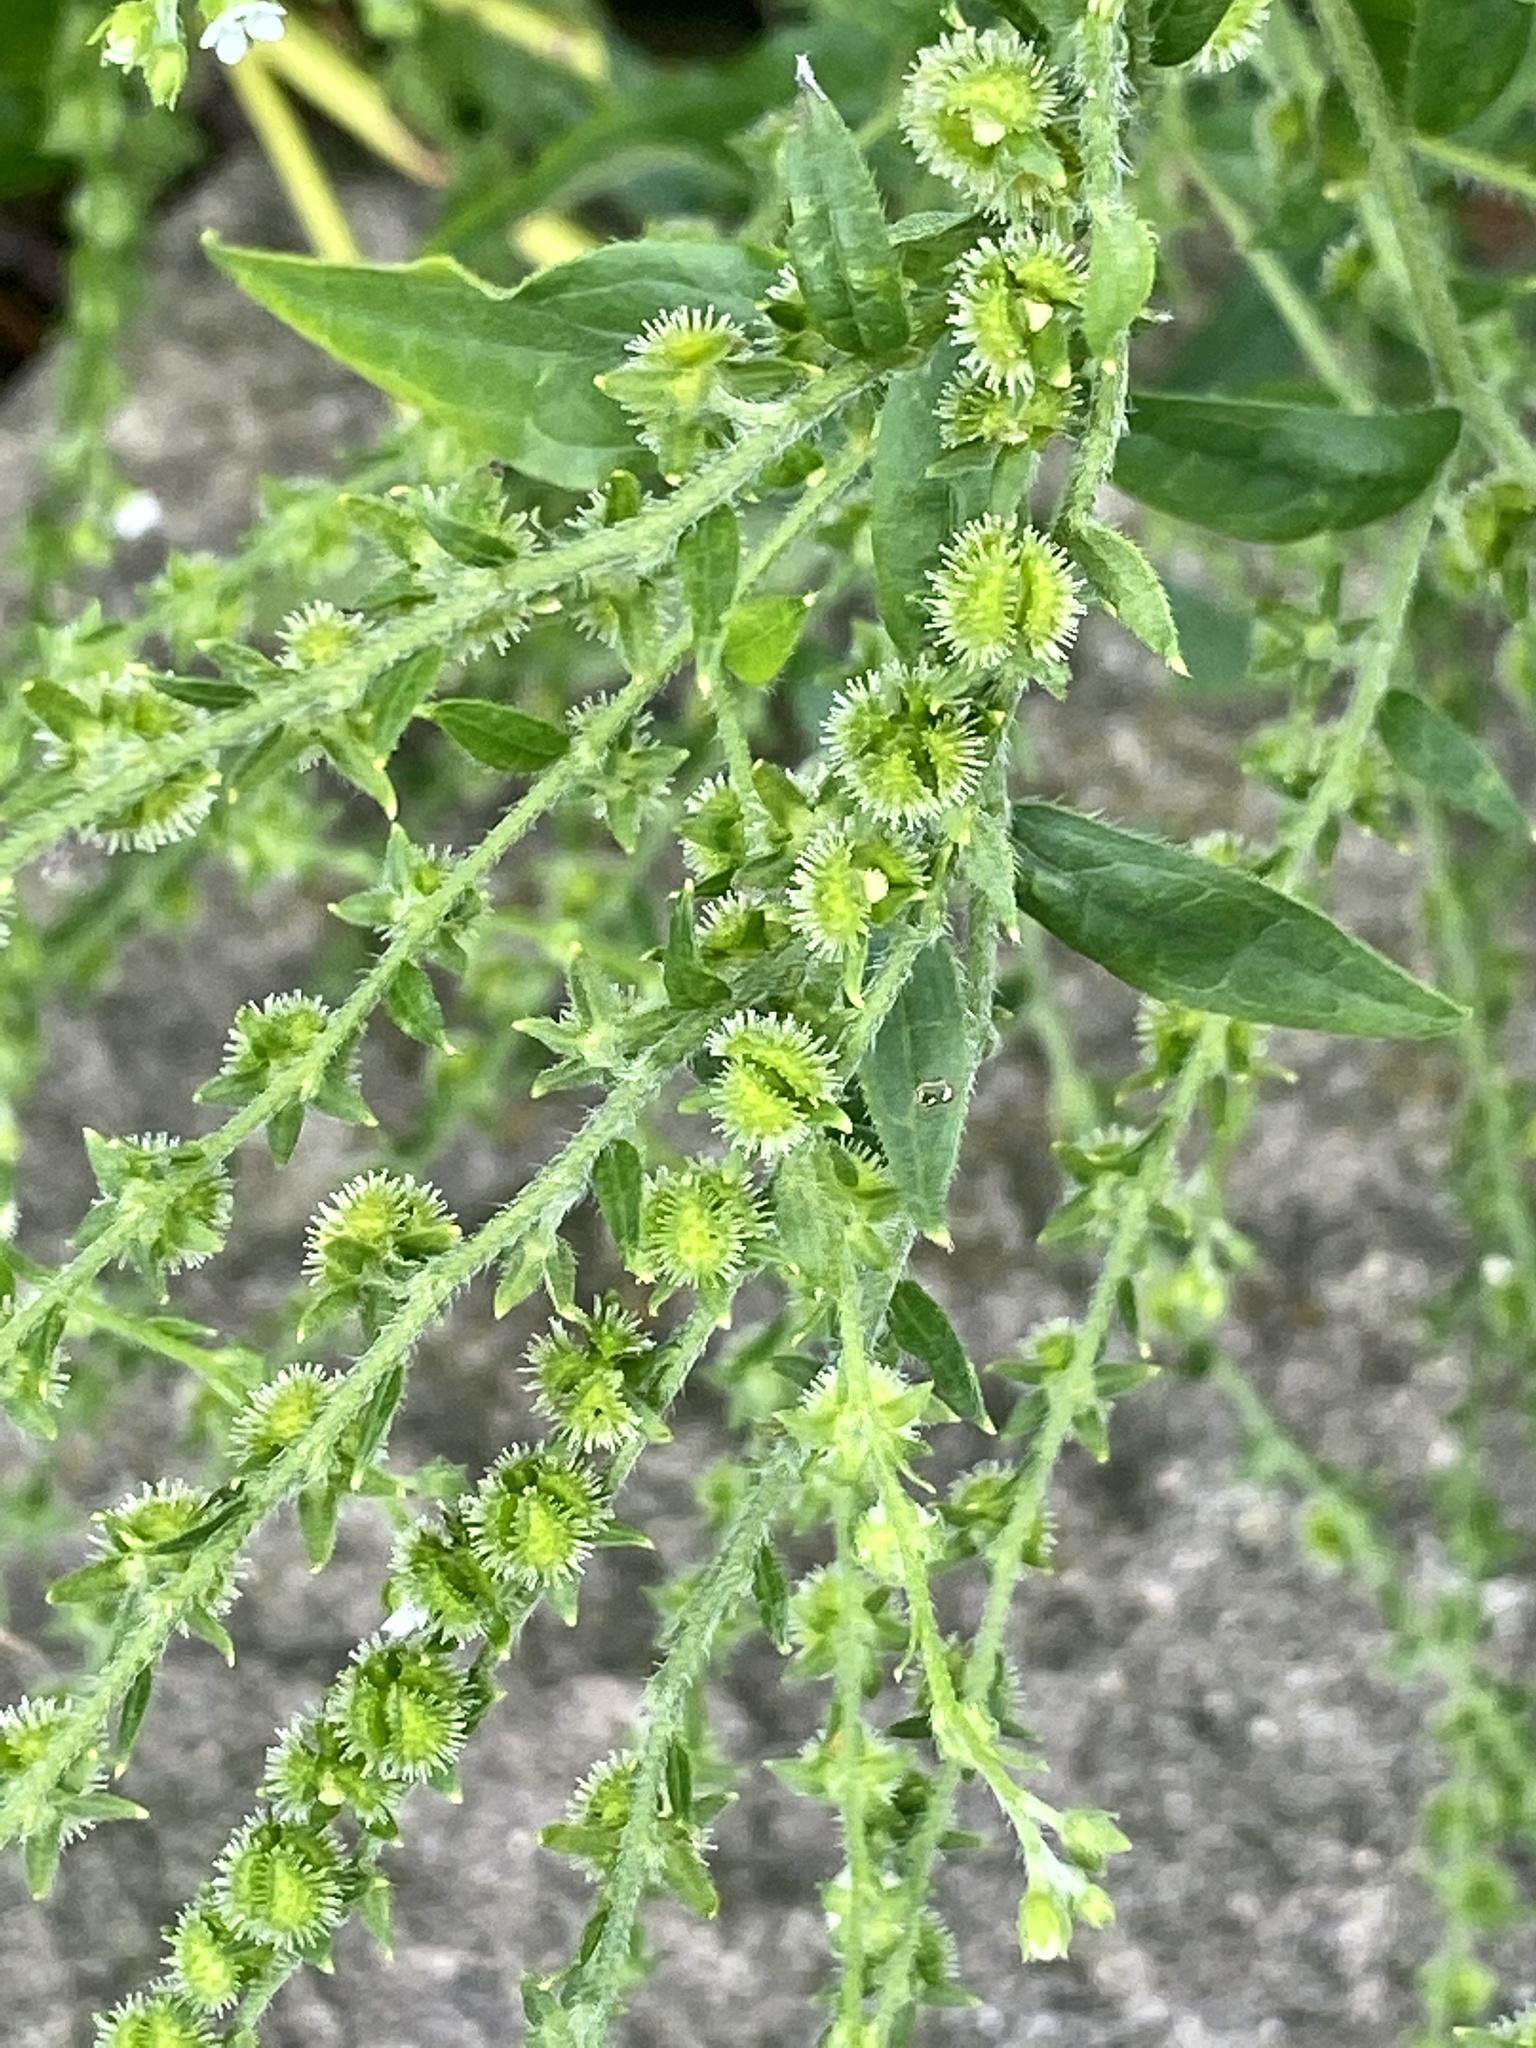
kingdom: Plantae
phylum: Tracheophyta
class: Magnoliopsida
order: Boraginales
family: Boraginaceae
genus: Hackelia
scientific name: Hackelia virginiana
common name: Beggar's-lice
